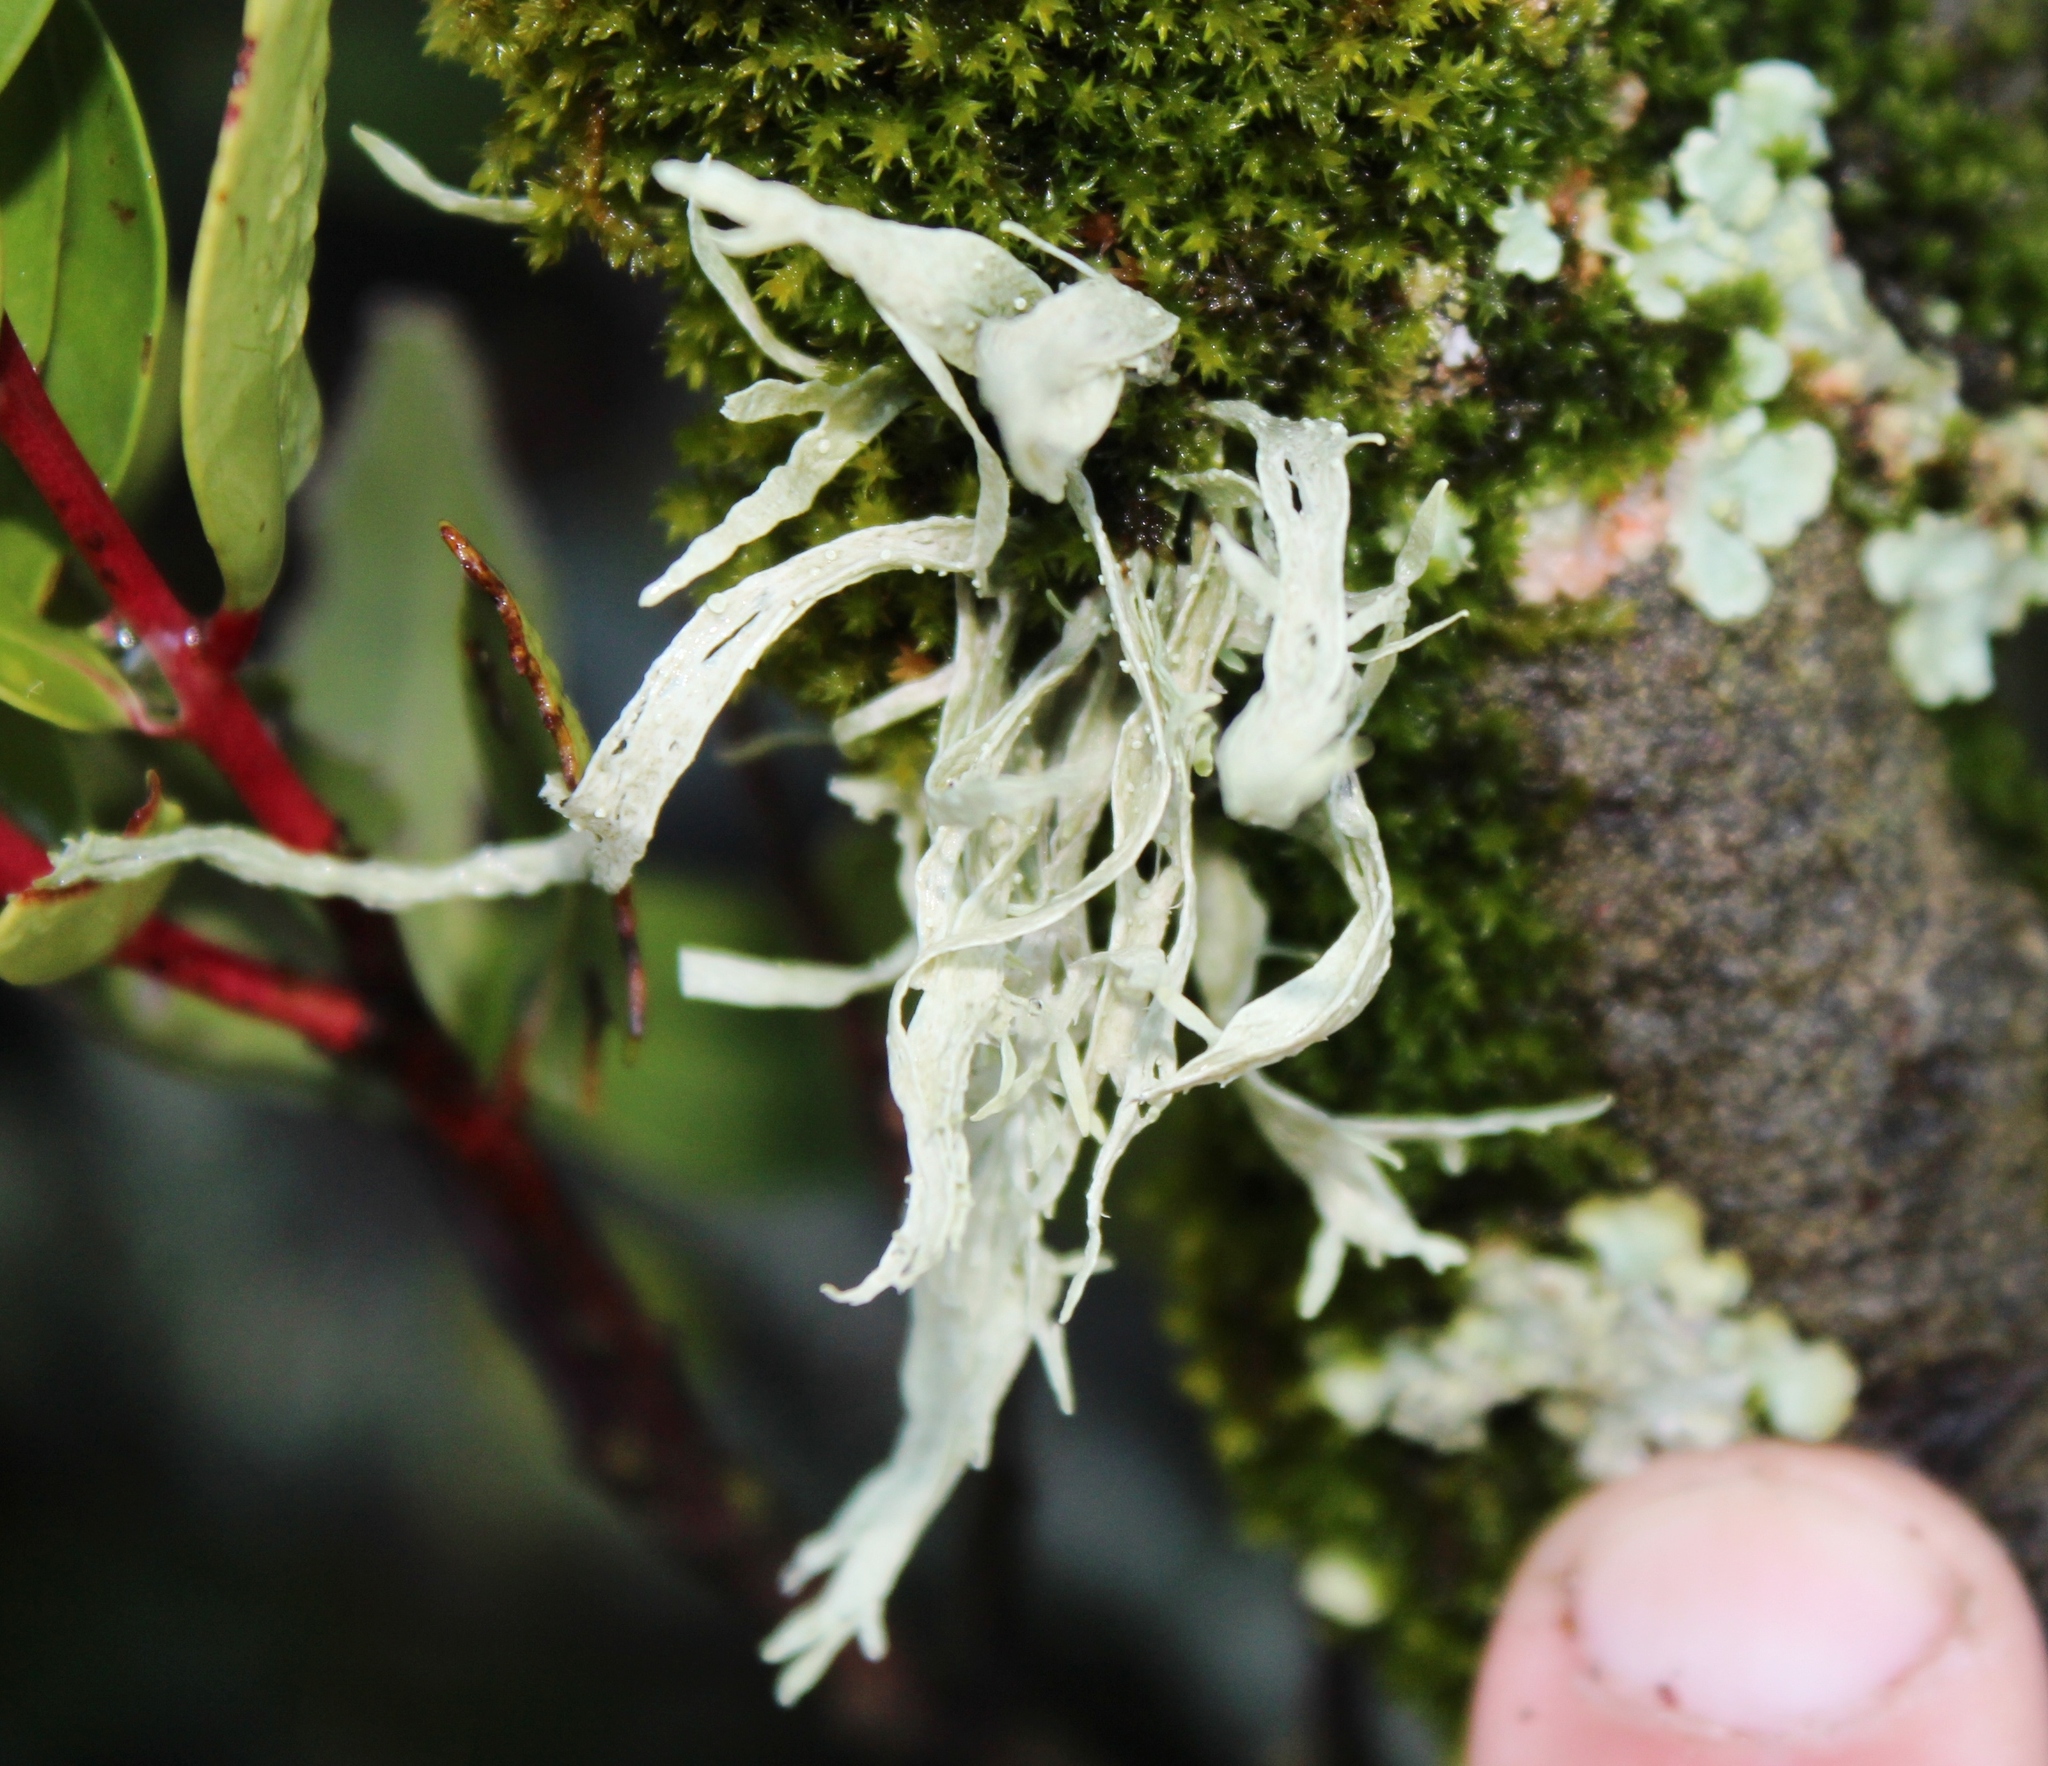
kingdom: Fungi
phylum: Ascomycota
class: Lecanoromycetes
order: Lecanorales
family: Ramalinaceae
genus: Ramalina
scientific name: Ramalina celastri
